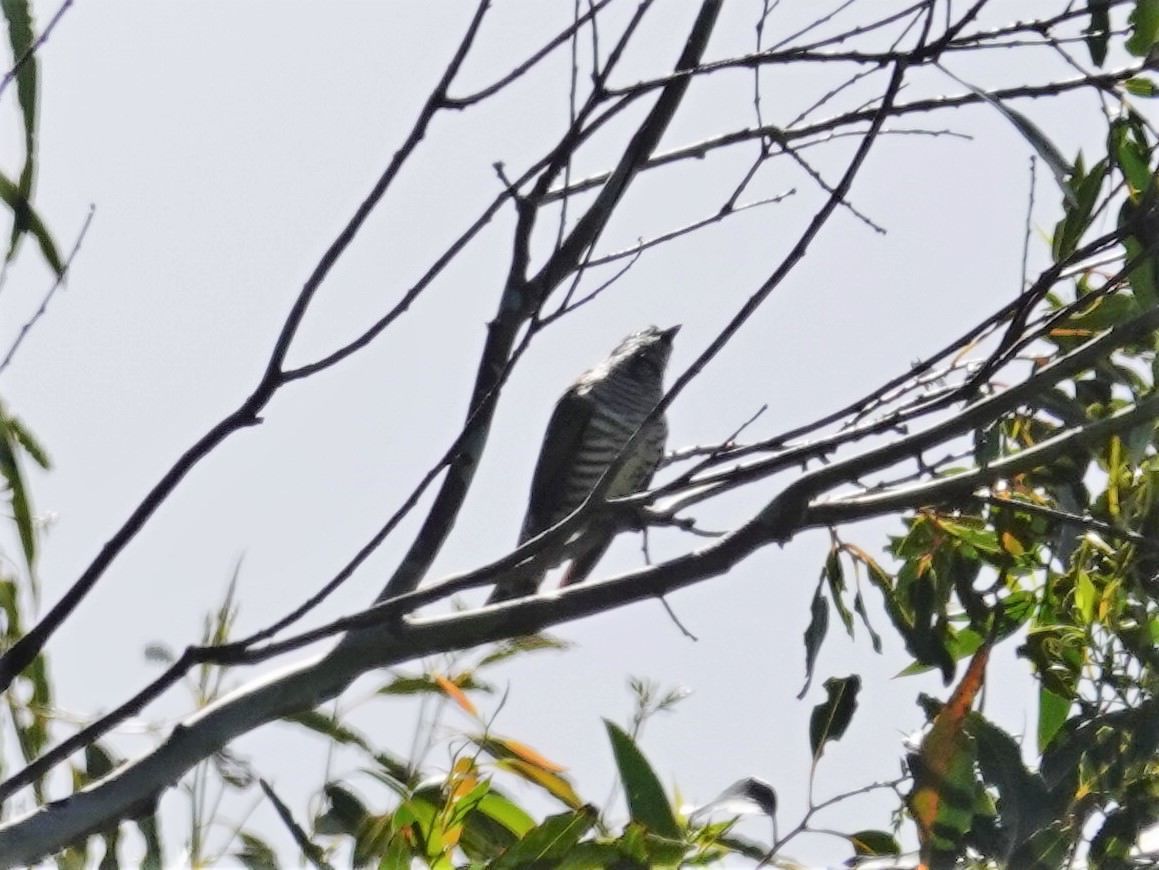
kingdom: Animalia
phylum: Chordata
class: Aves
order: Cuculiformes
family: Cuculidae
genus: Chrysococcyx
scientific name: Chrysococcyx lucidus
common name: Shining bronze cuckoo
